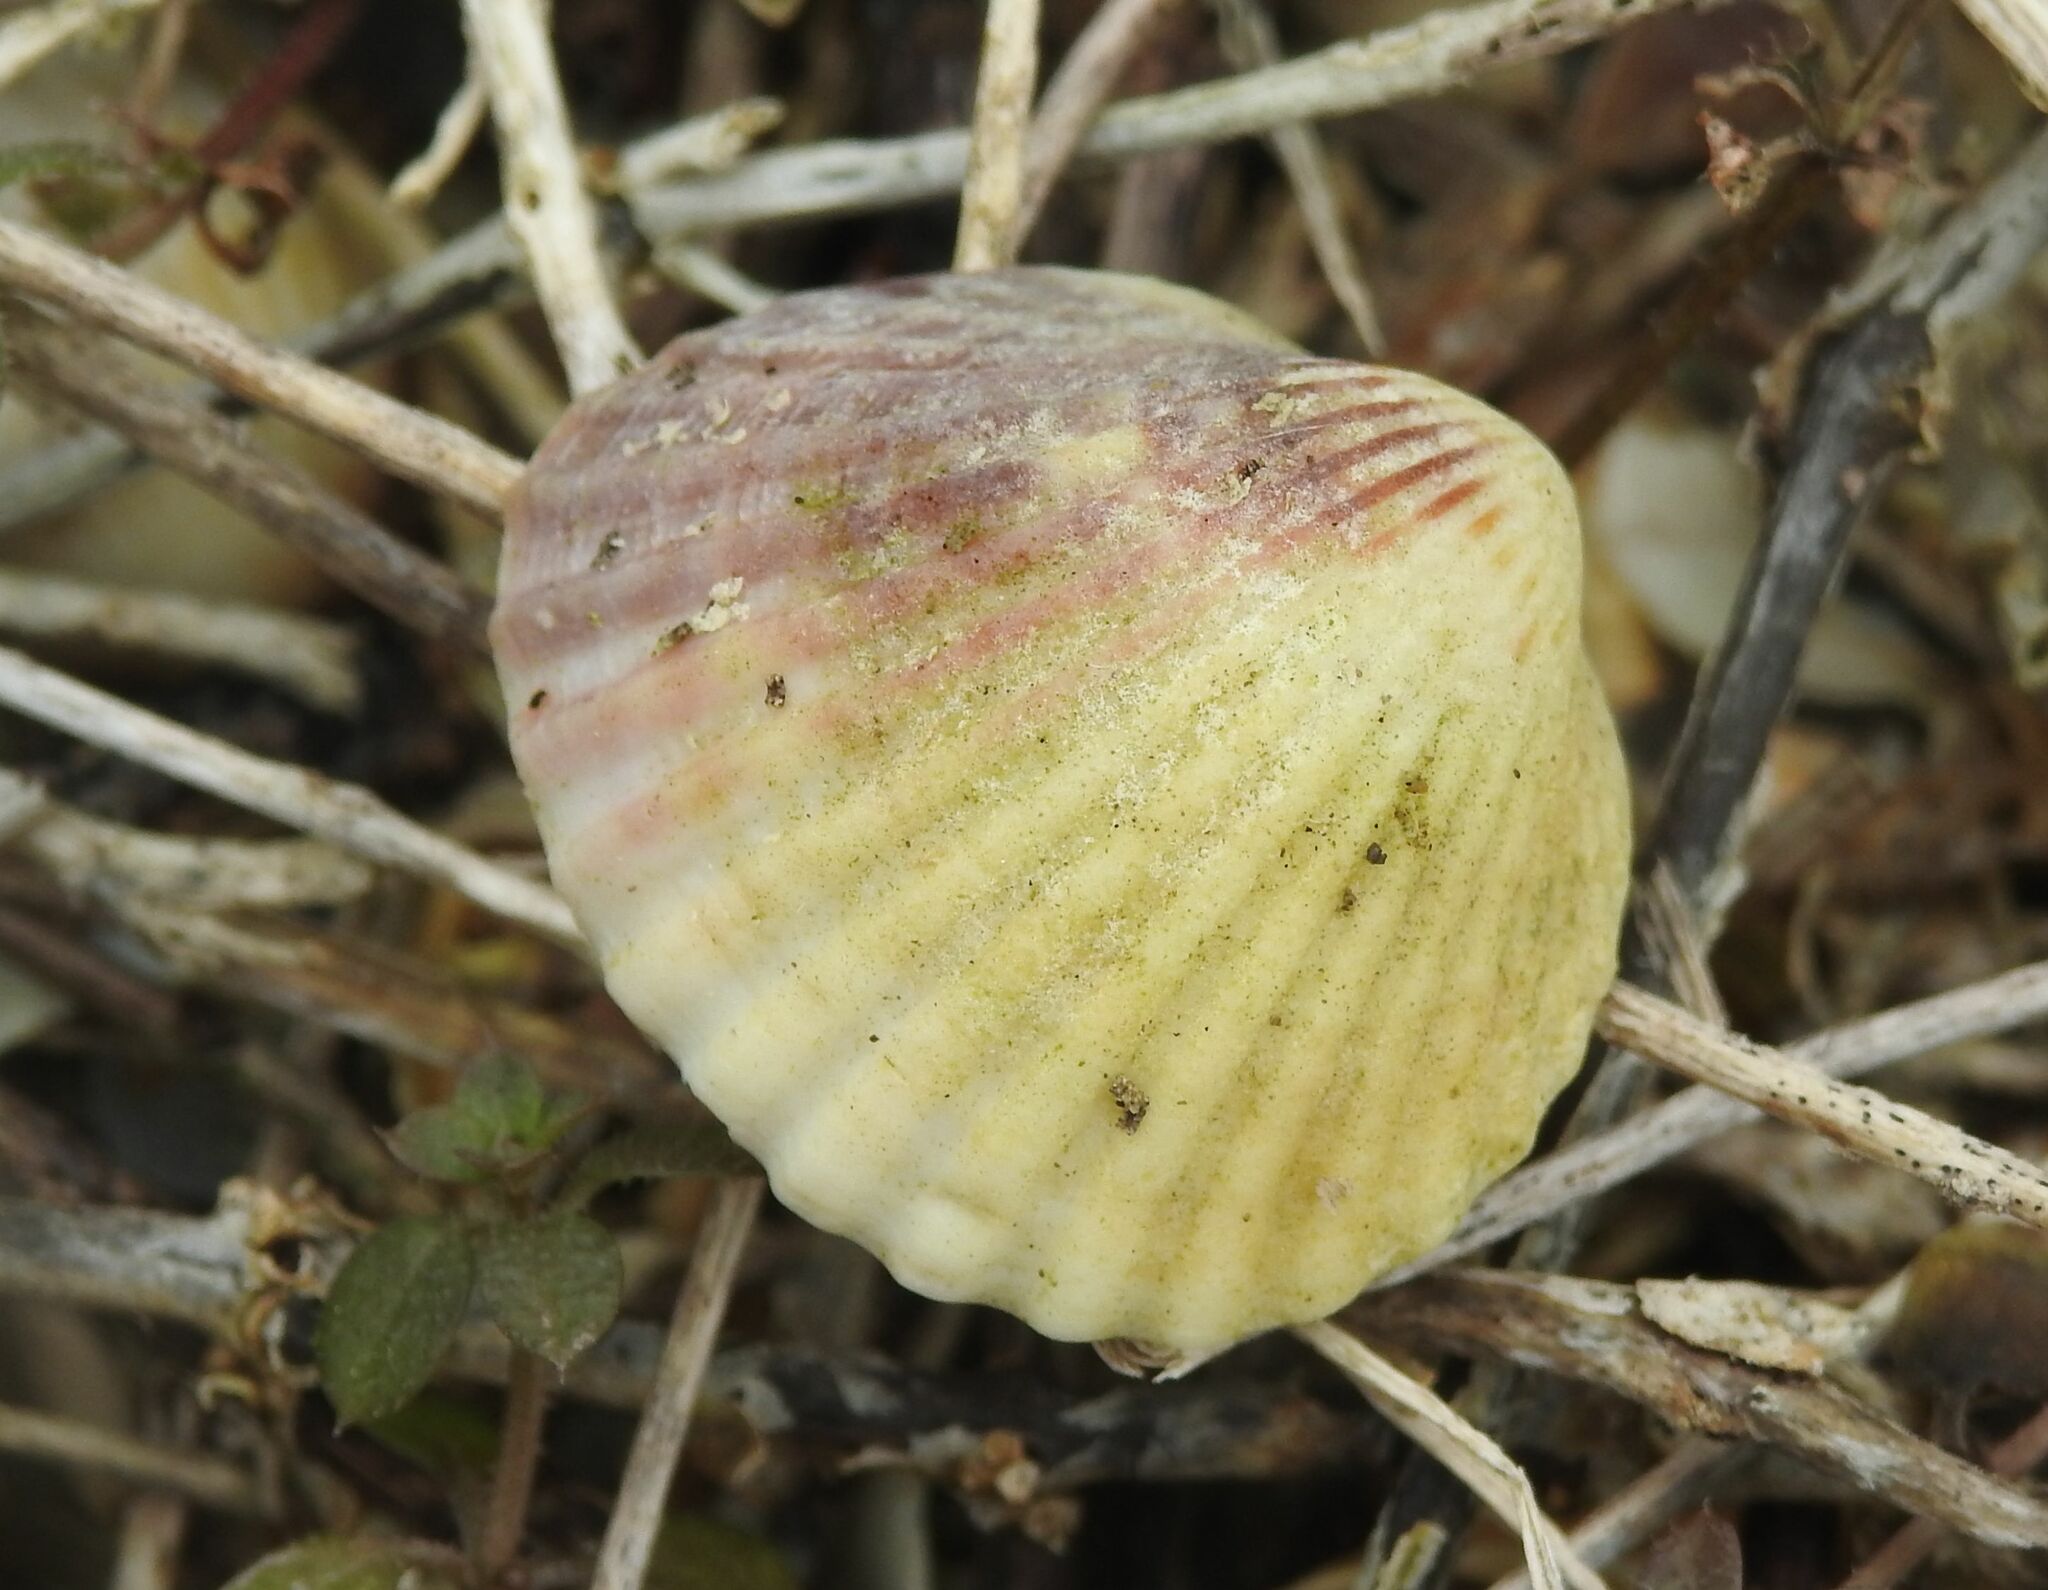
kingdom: Animalia
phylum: Mollusca
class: Bivalvia
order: Cardiida
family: Cardiidae
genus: Cerastoderma
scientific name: Cerastoderma glaucum
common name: Lagoon cockle
